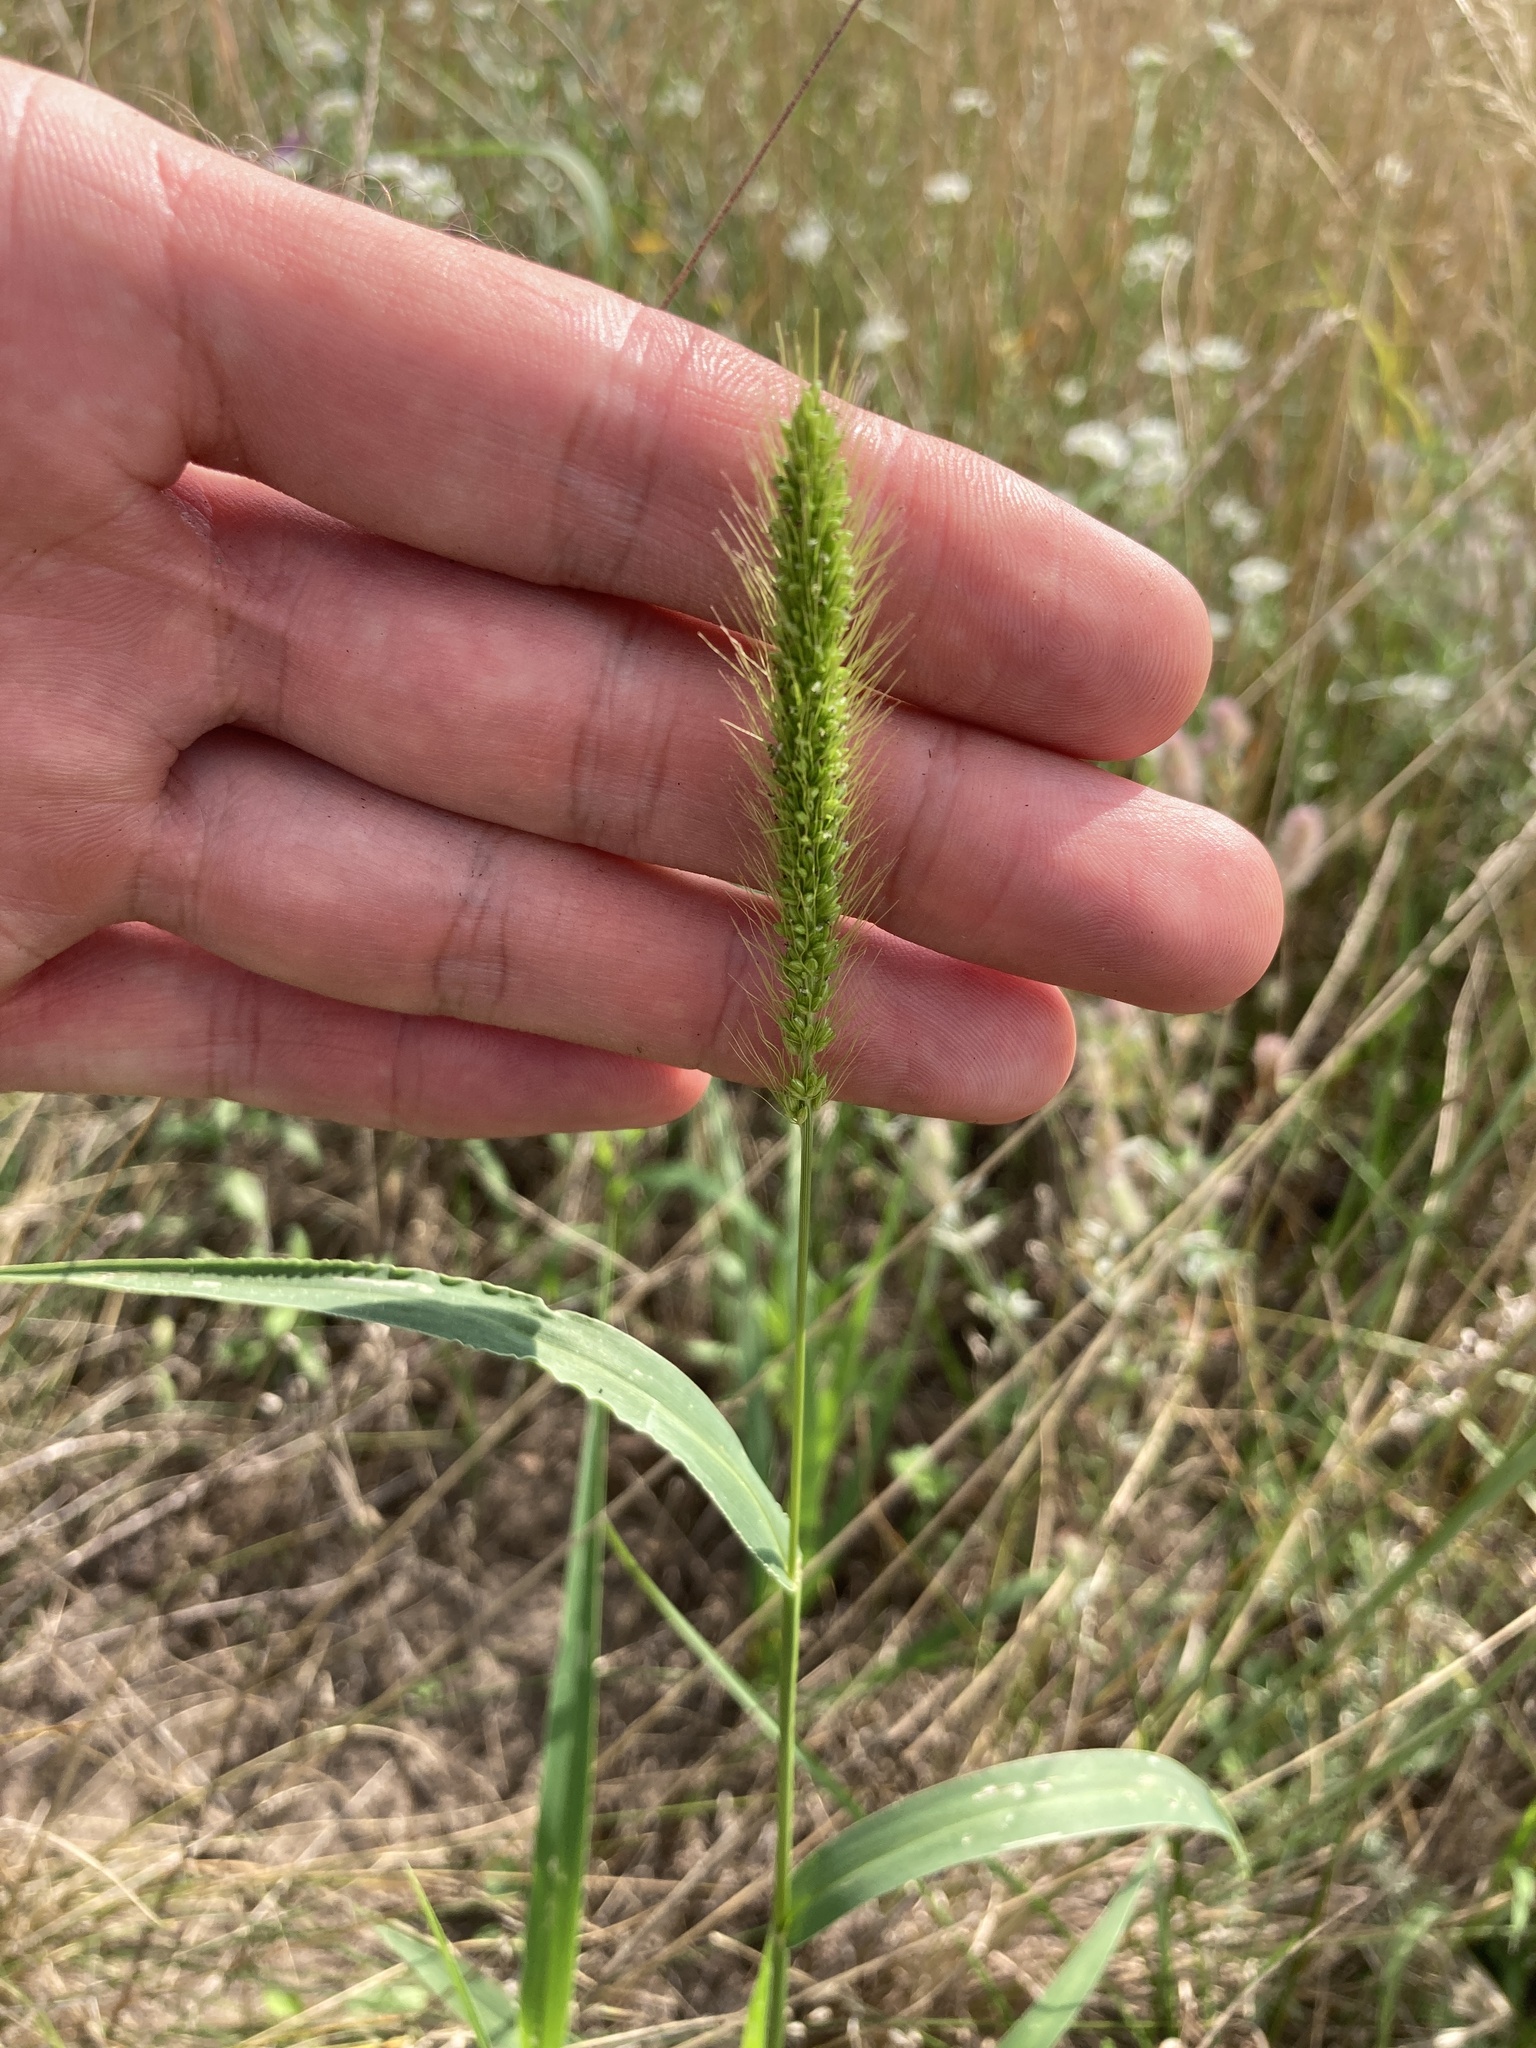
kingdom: Plantae
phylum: Tracheophyta
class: Liliopsida
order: Poales
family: Poaceae
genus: Setaria
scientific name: Setaria viridis
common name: Green bristlegrass
